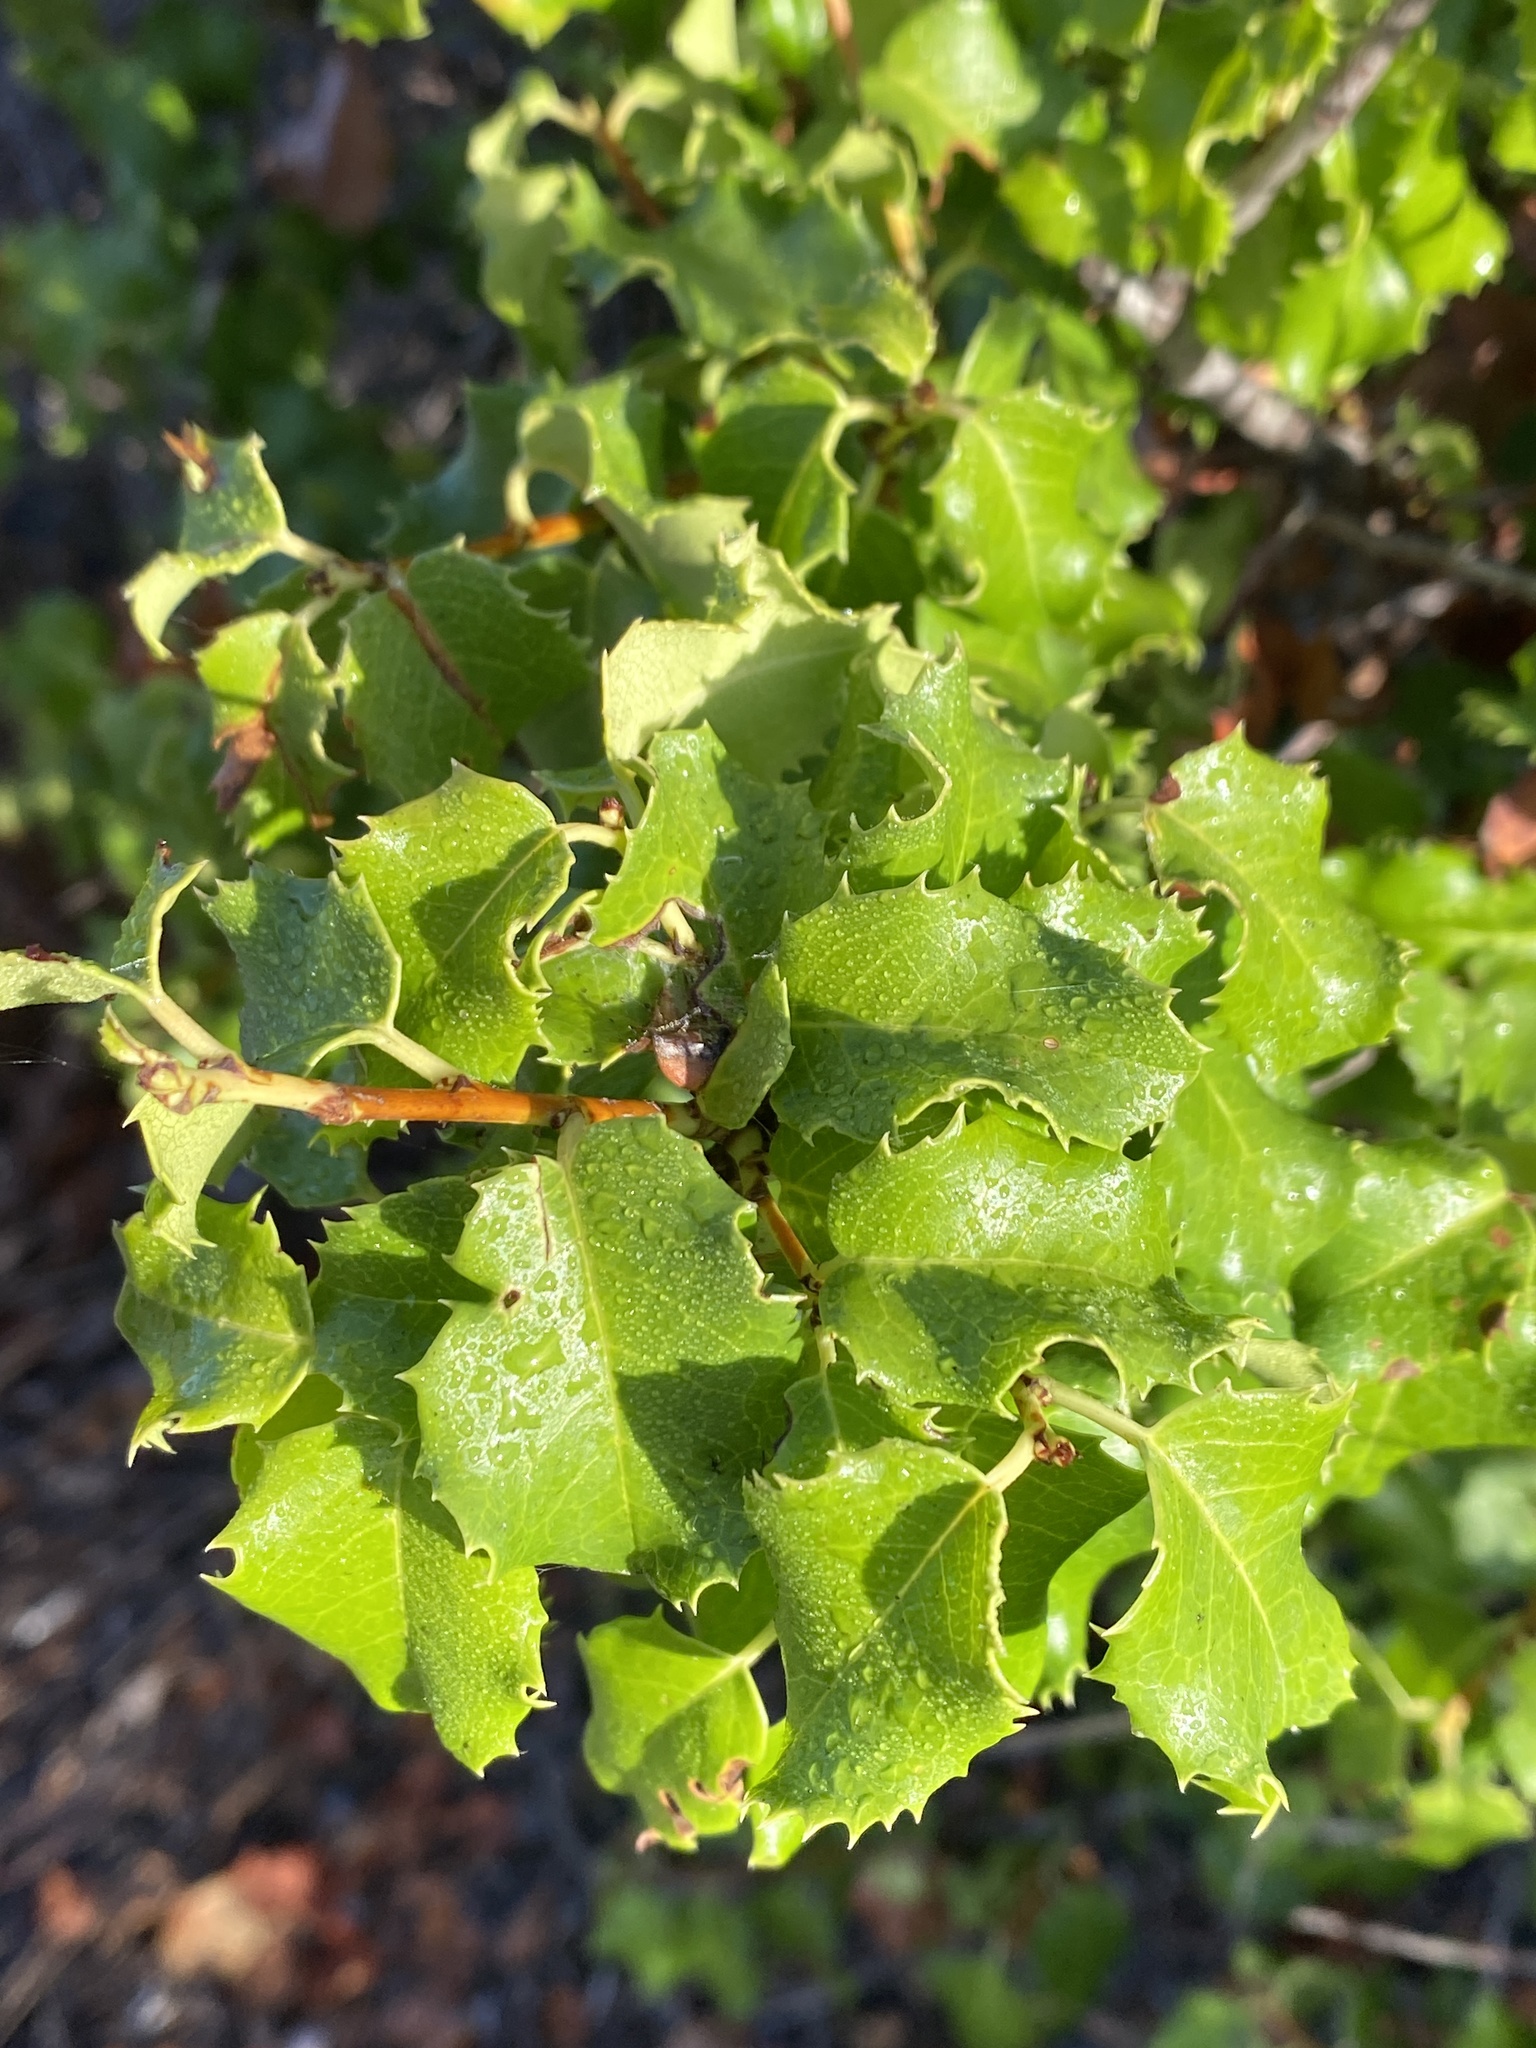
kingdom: Plantae
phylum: Tracheophyta
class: Magnoliopsida
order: Rosales
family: Rosaceae
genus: Prunus
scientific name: Prunus ilicifolia
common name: Hollyleaf cherry
